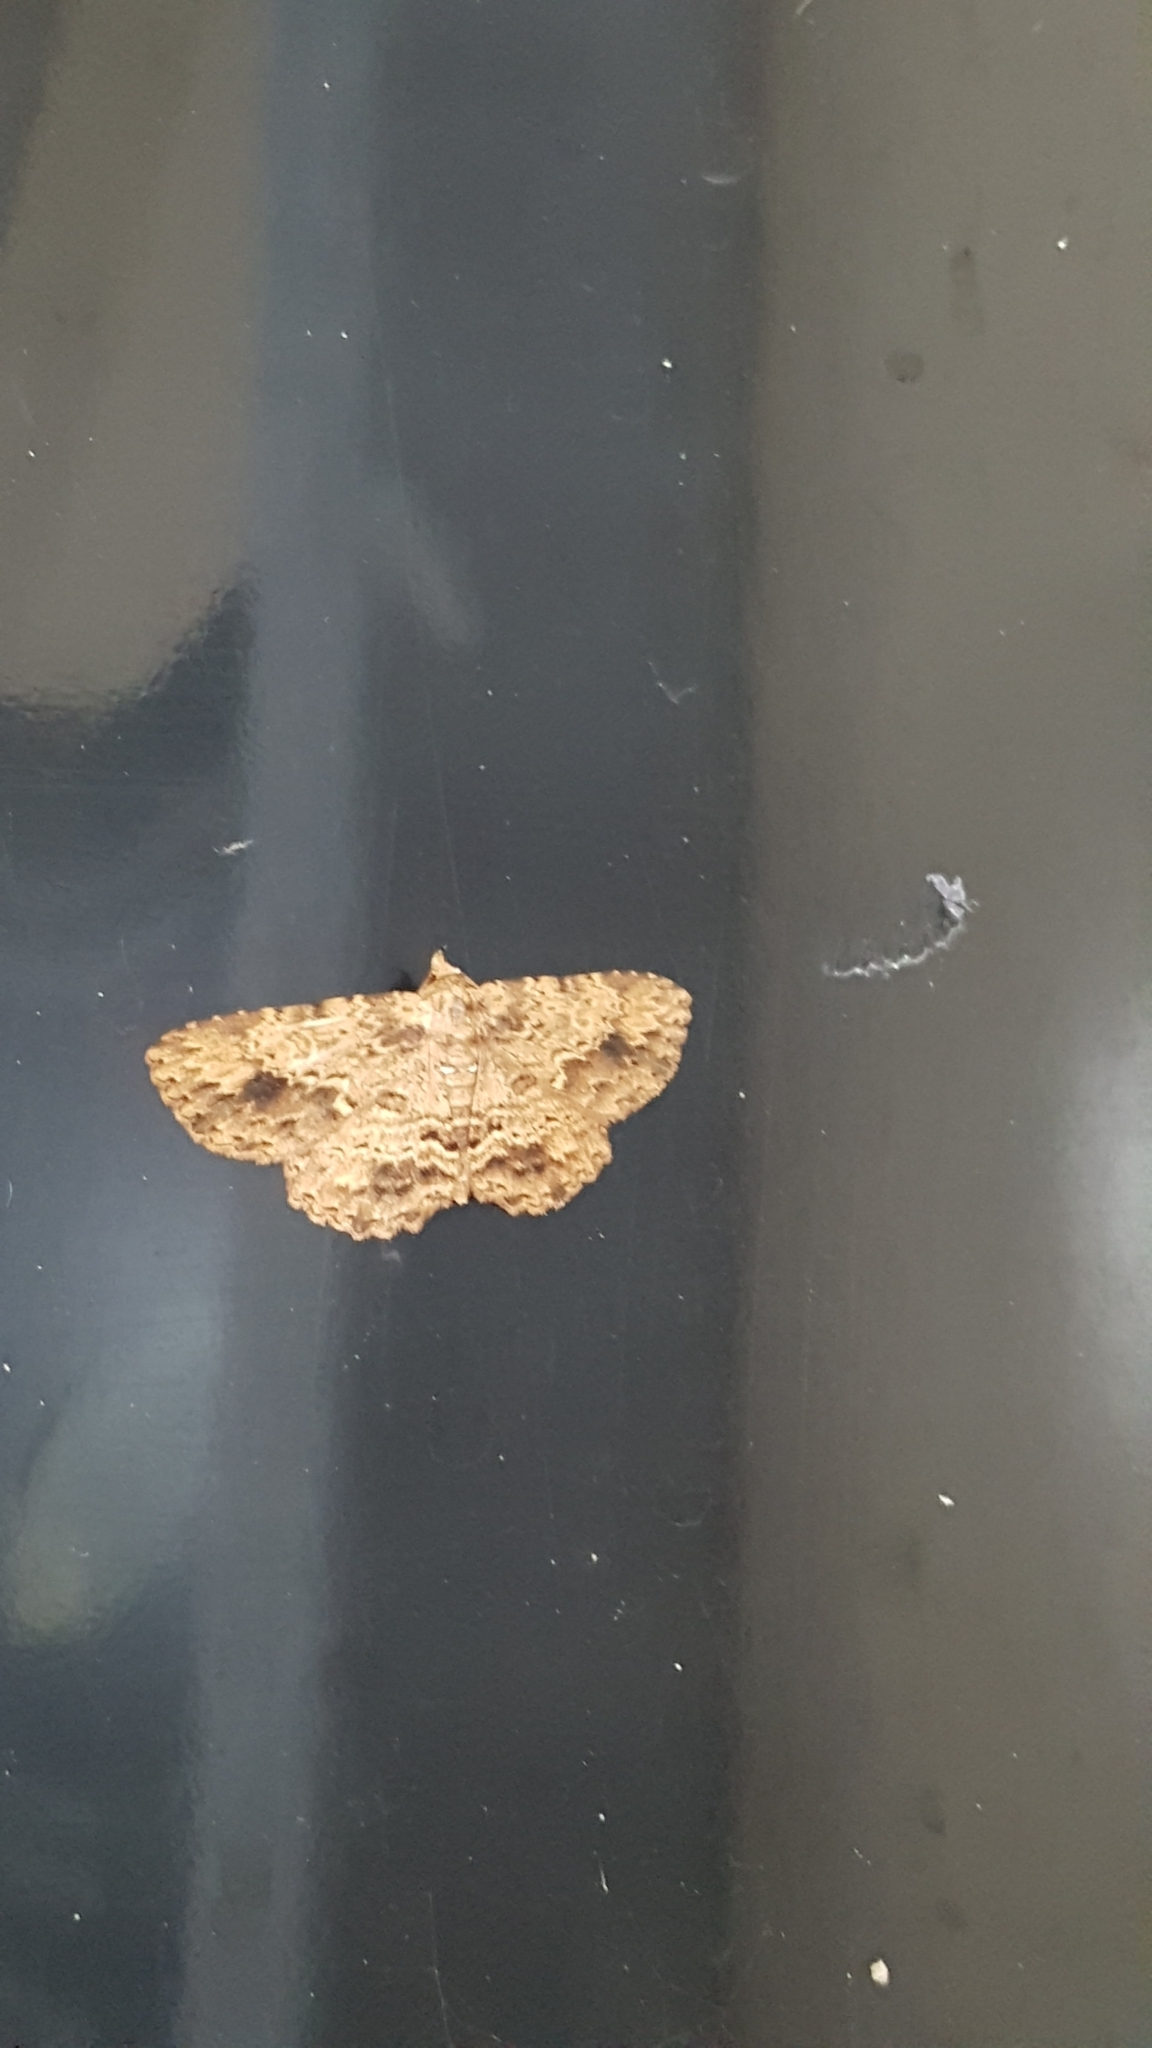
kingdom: Animalia
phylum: Arthropoda
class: Insecta
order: Lepidoptera
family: Erebidae
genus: Artigisa
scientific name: Artigisa melanephele
